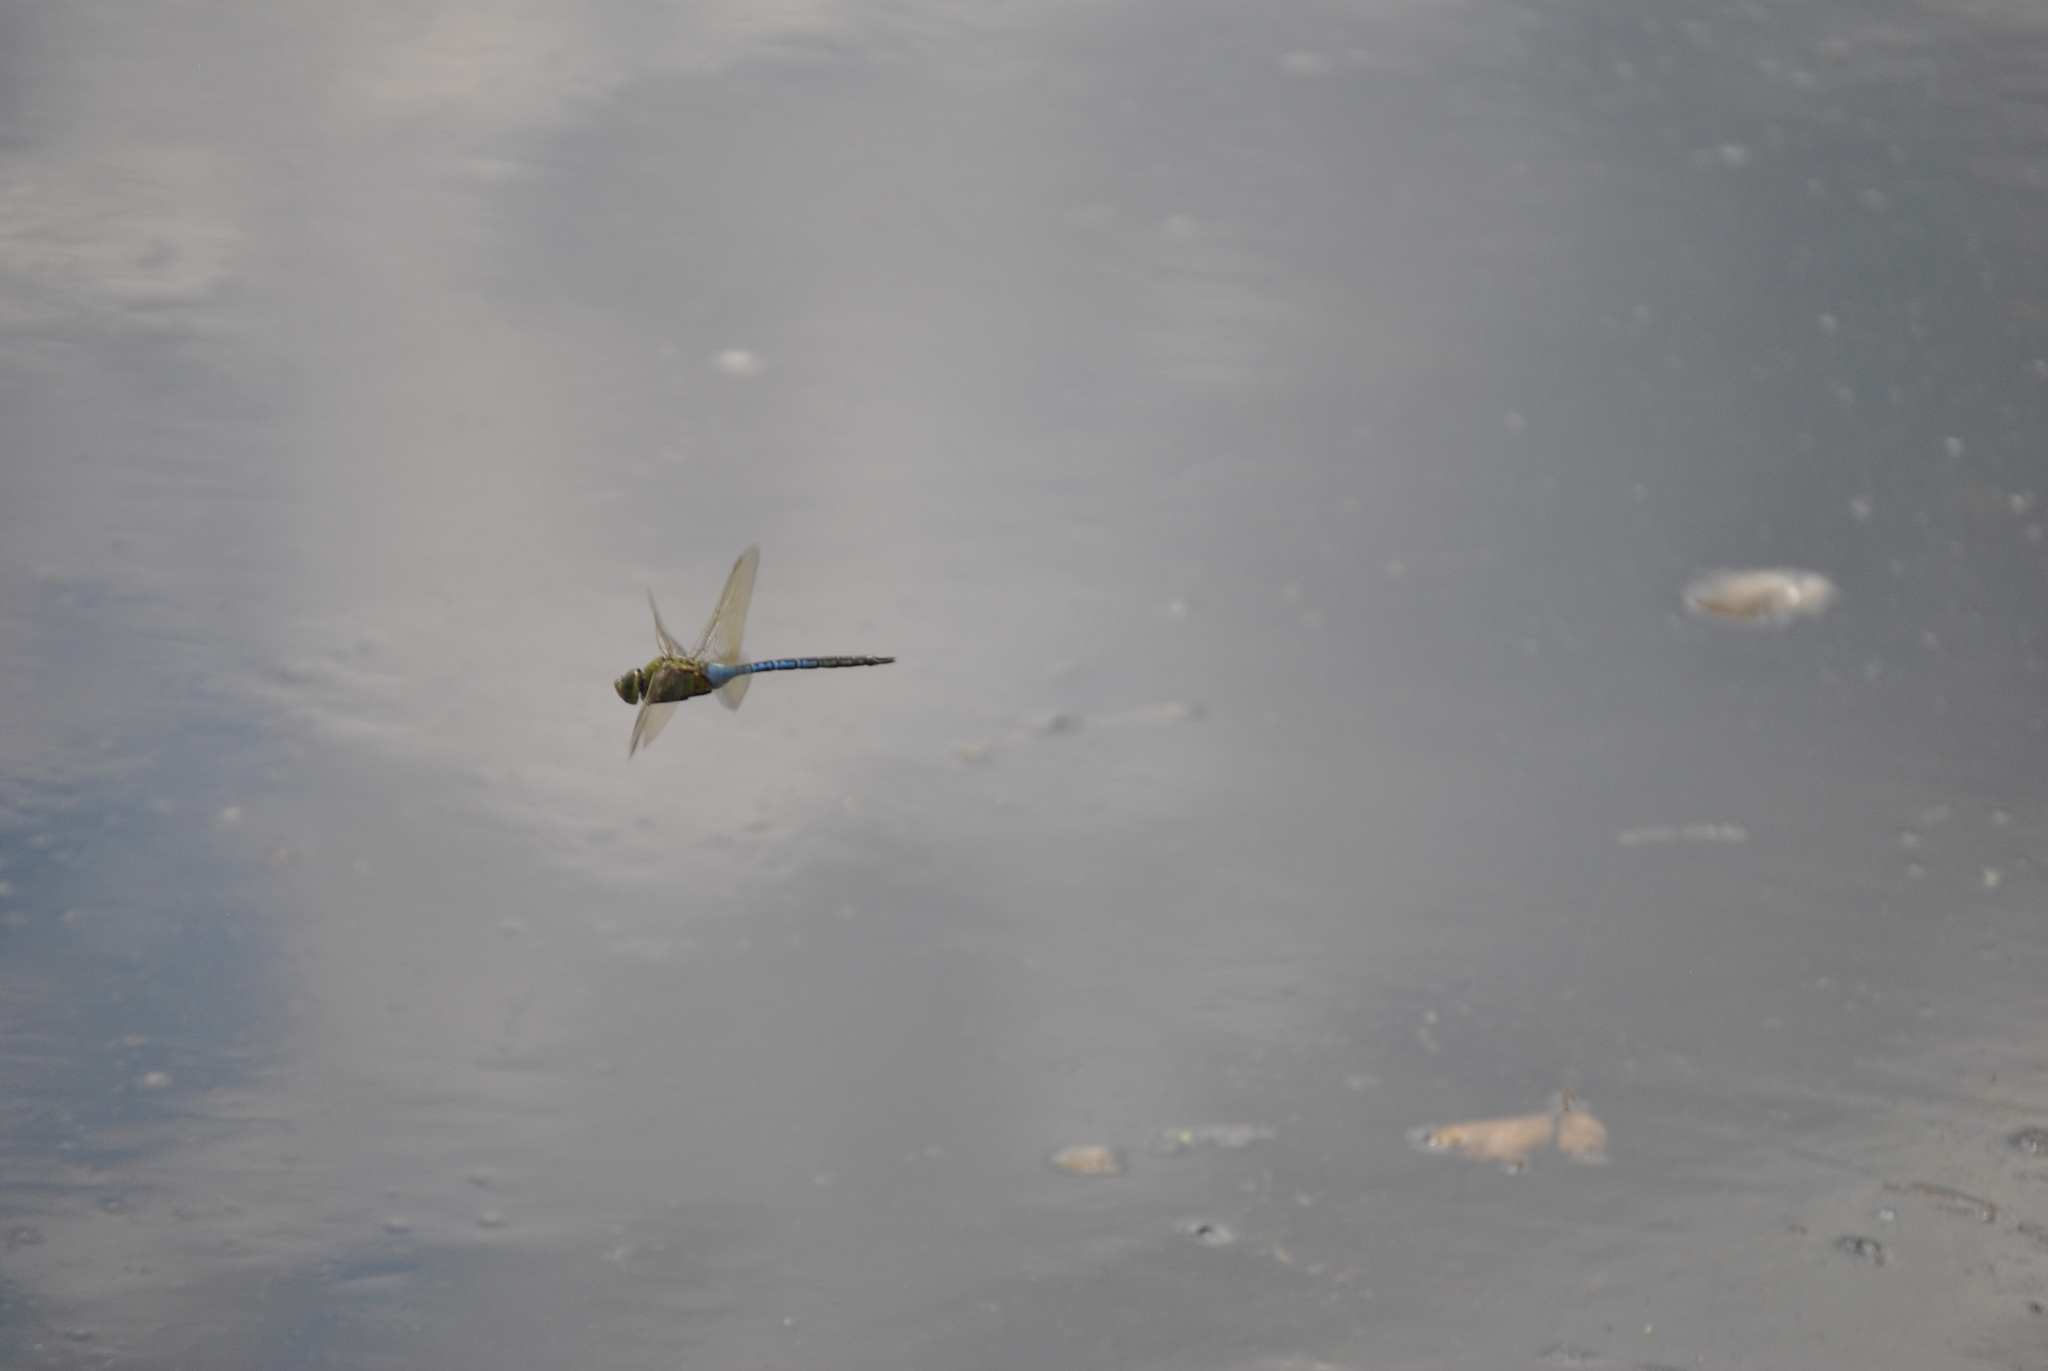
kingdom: Animalia
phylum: Arthropoda
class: Insecta
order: Odonata
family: Aeshnidae
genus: Anax
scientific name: Anax junius
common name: Common green darner
